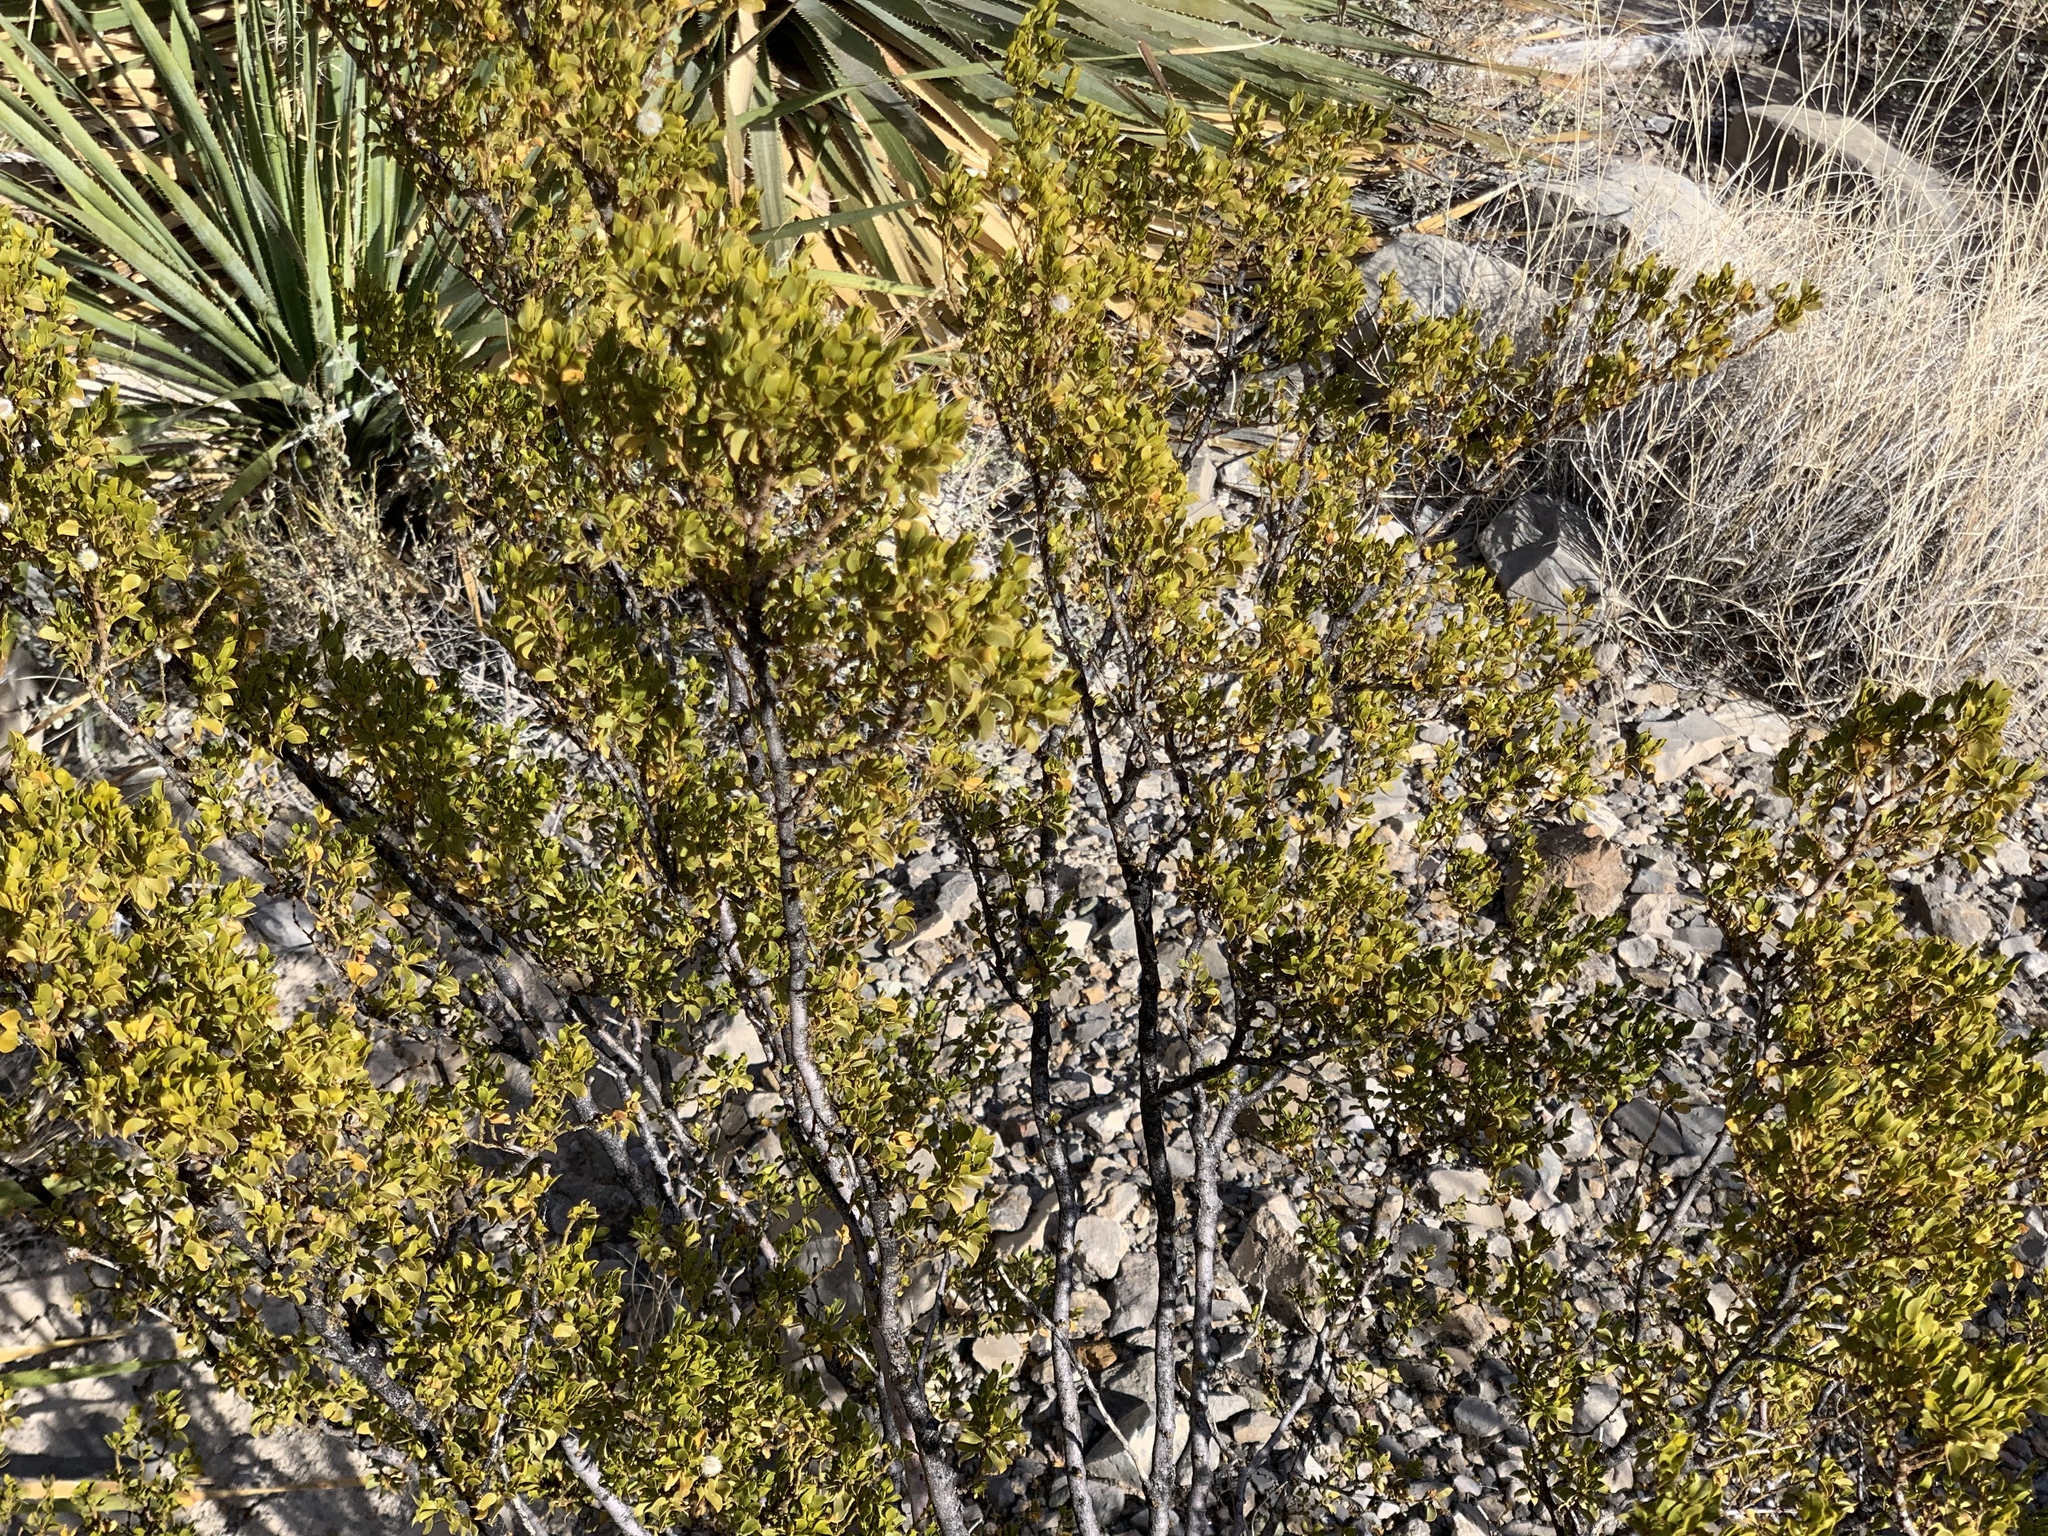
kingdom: Plantae
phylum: Tracheophyta
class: Magnoliopsida
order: Zygophyllales
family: Zygophyllaceae
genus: Larrea
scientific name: Larrea tridentata
